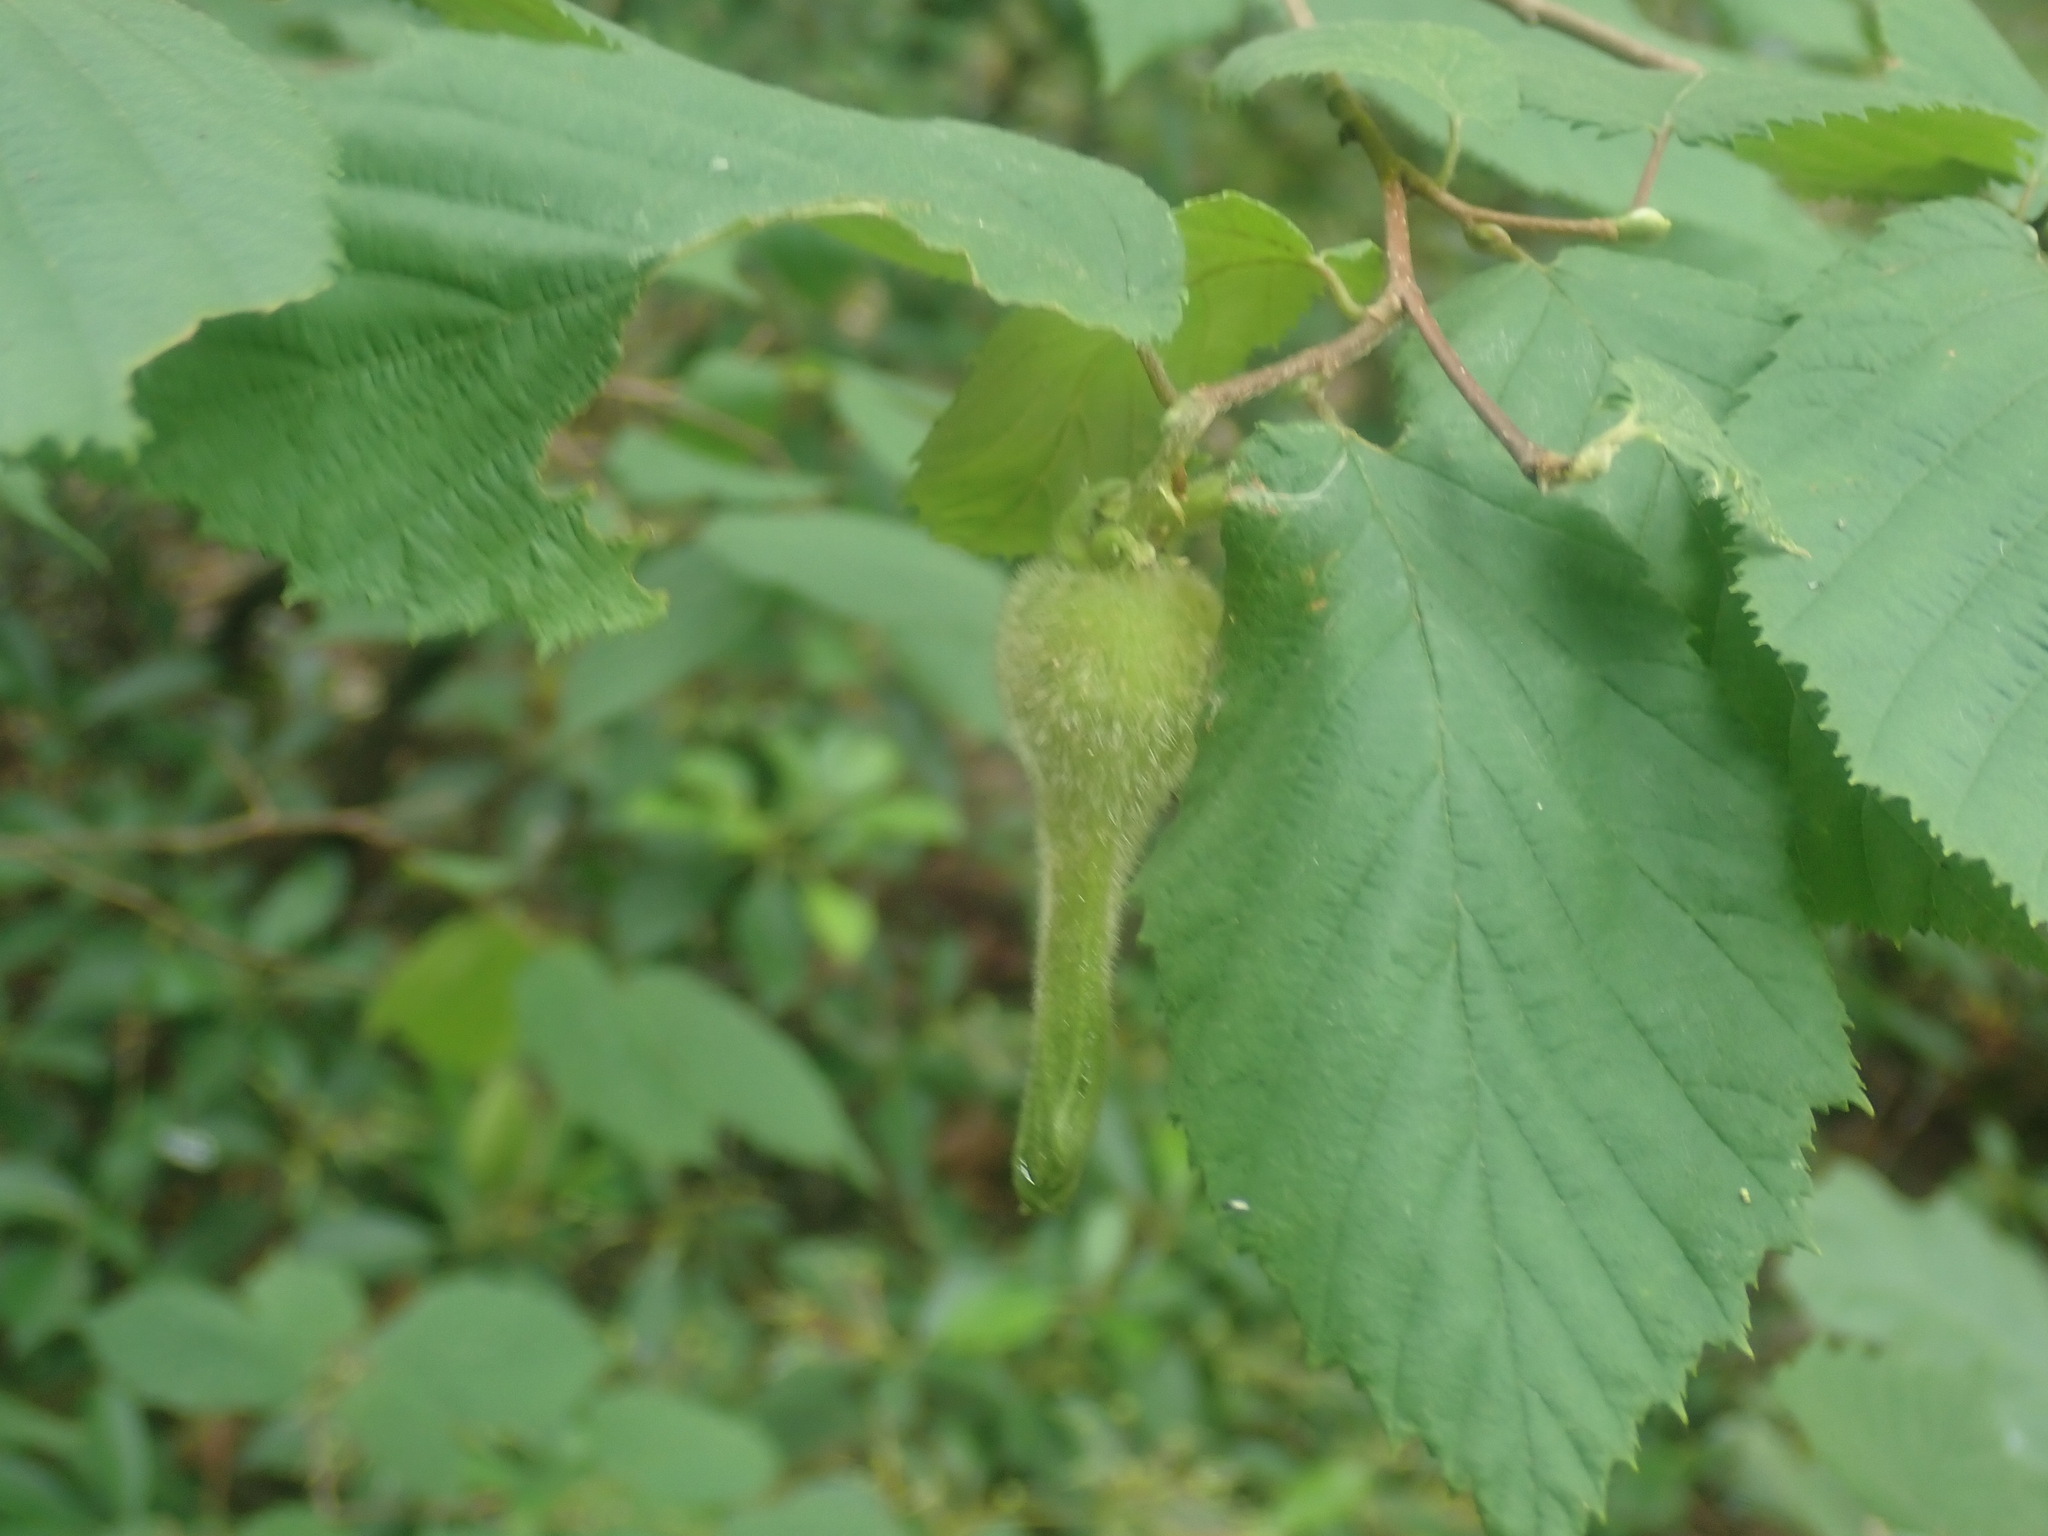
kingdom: Plantae
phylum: Tracheophyta
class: Magnoliopsida
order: Fagales
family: Betulaceae
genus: Corylus
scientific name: Corylus cornuta
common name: Beaked hazel
